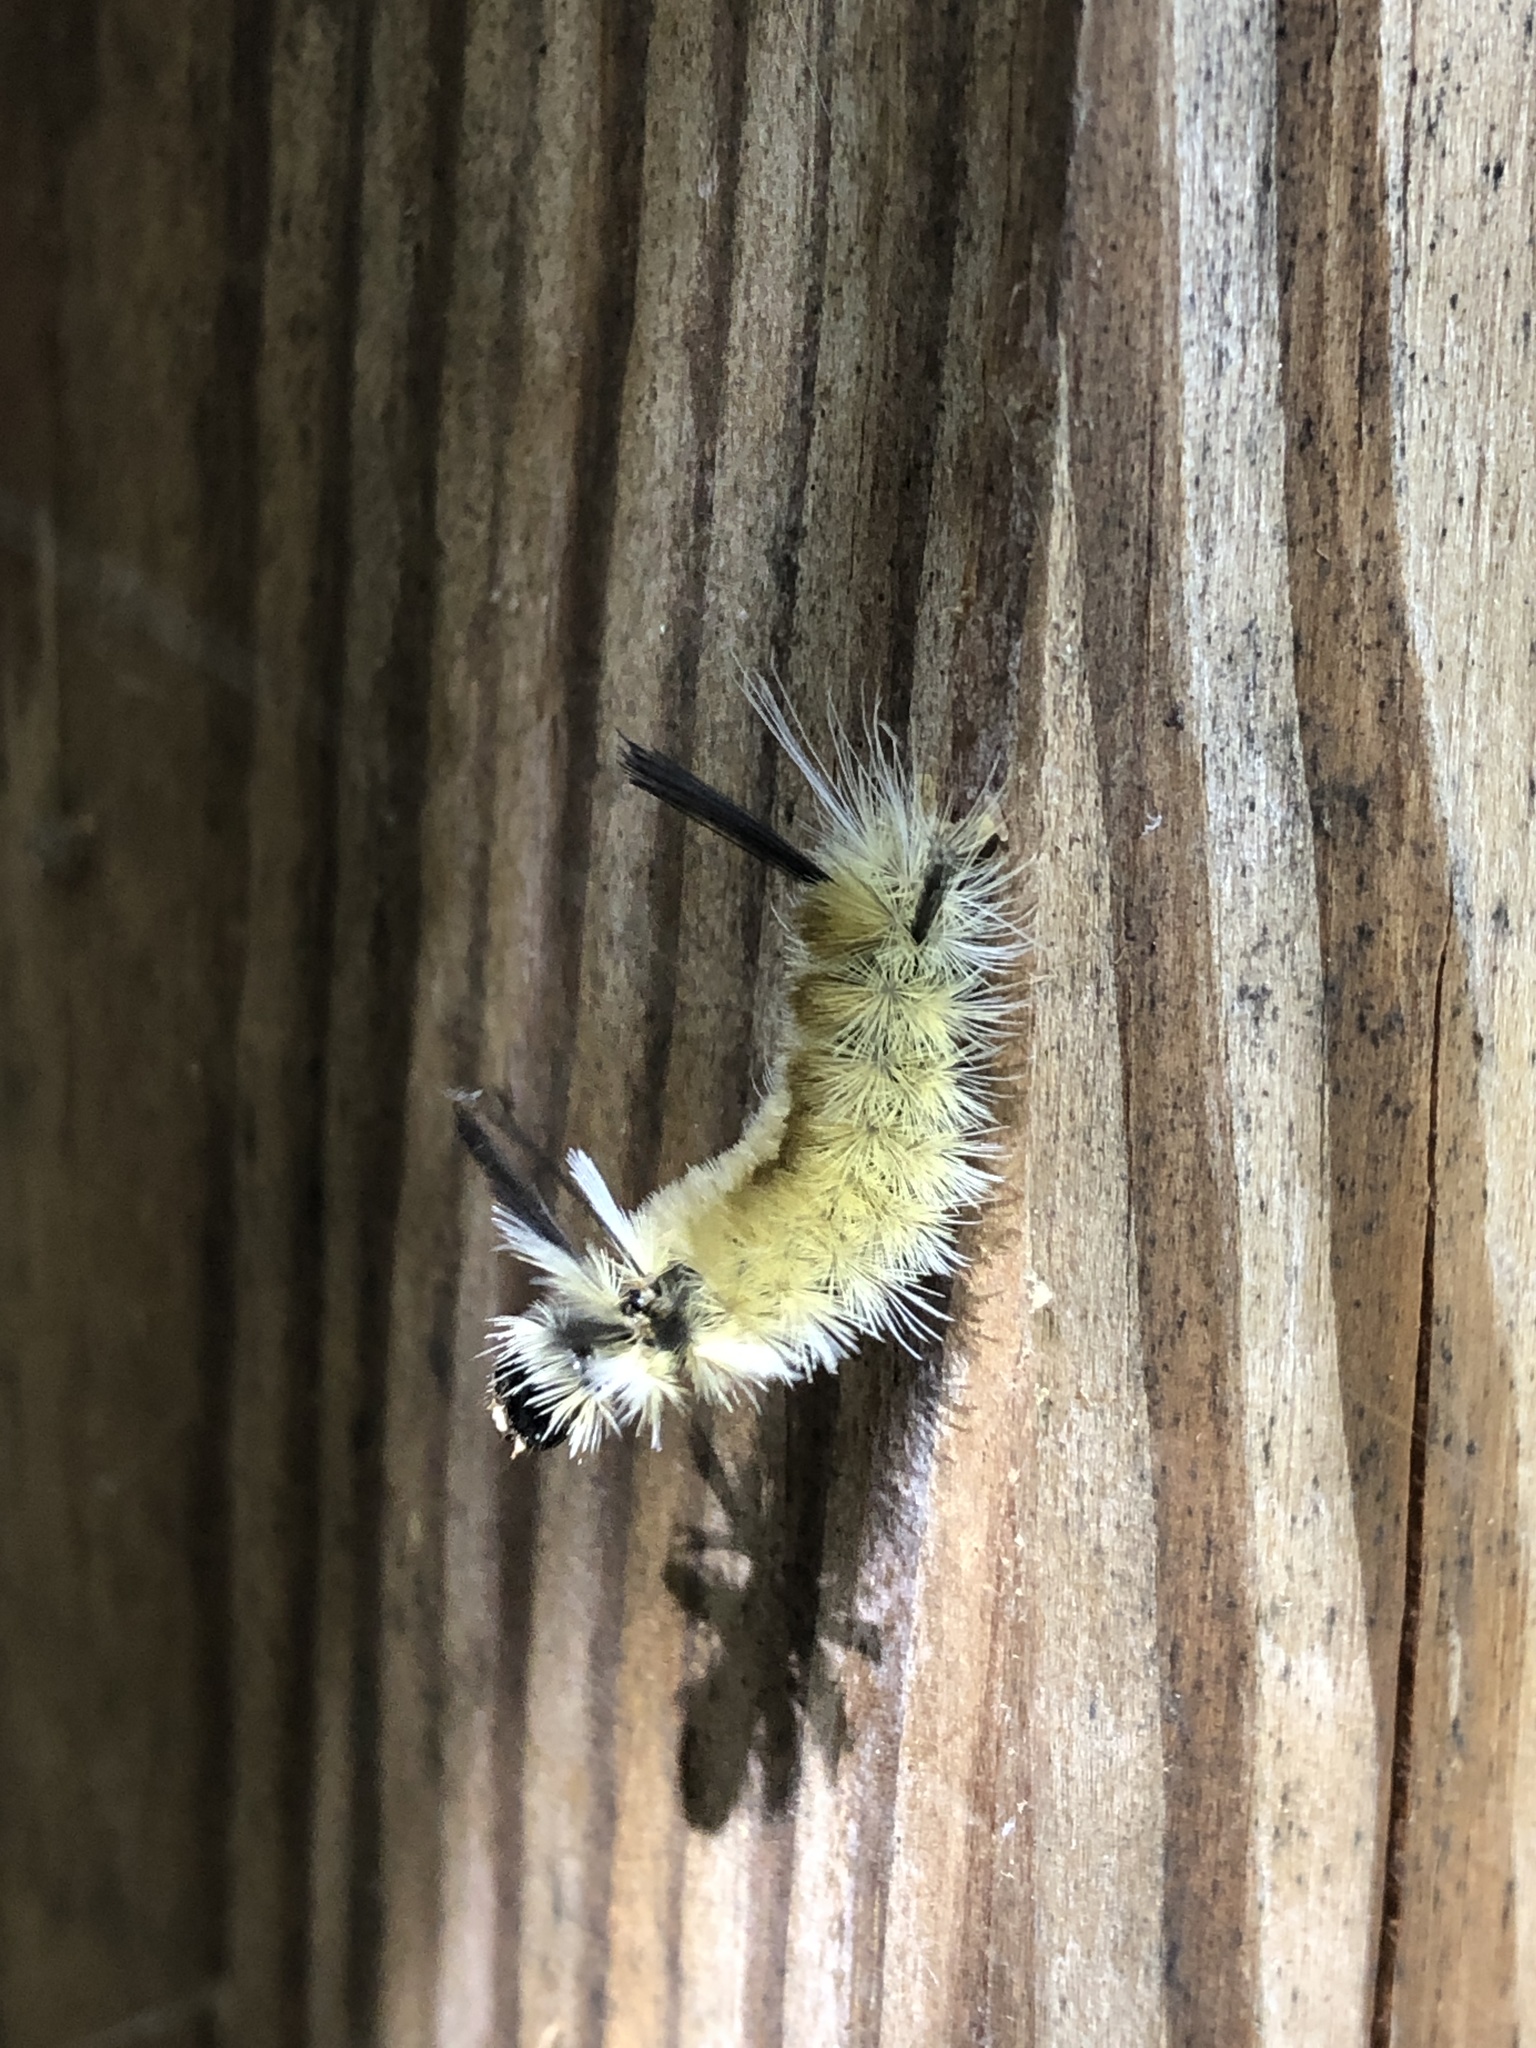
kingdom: Animalia
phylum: Arthropoda
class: Insecta
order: Lepidoptera
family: Erebidae
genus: Halysidota
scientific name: Halysidota tessellaris
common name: Banded tussock moth
